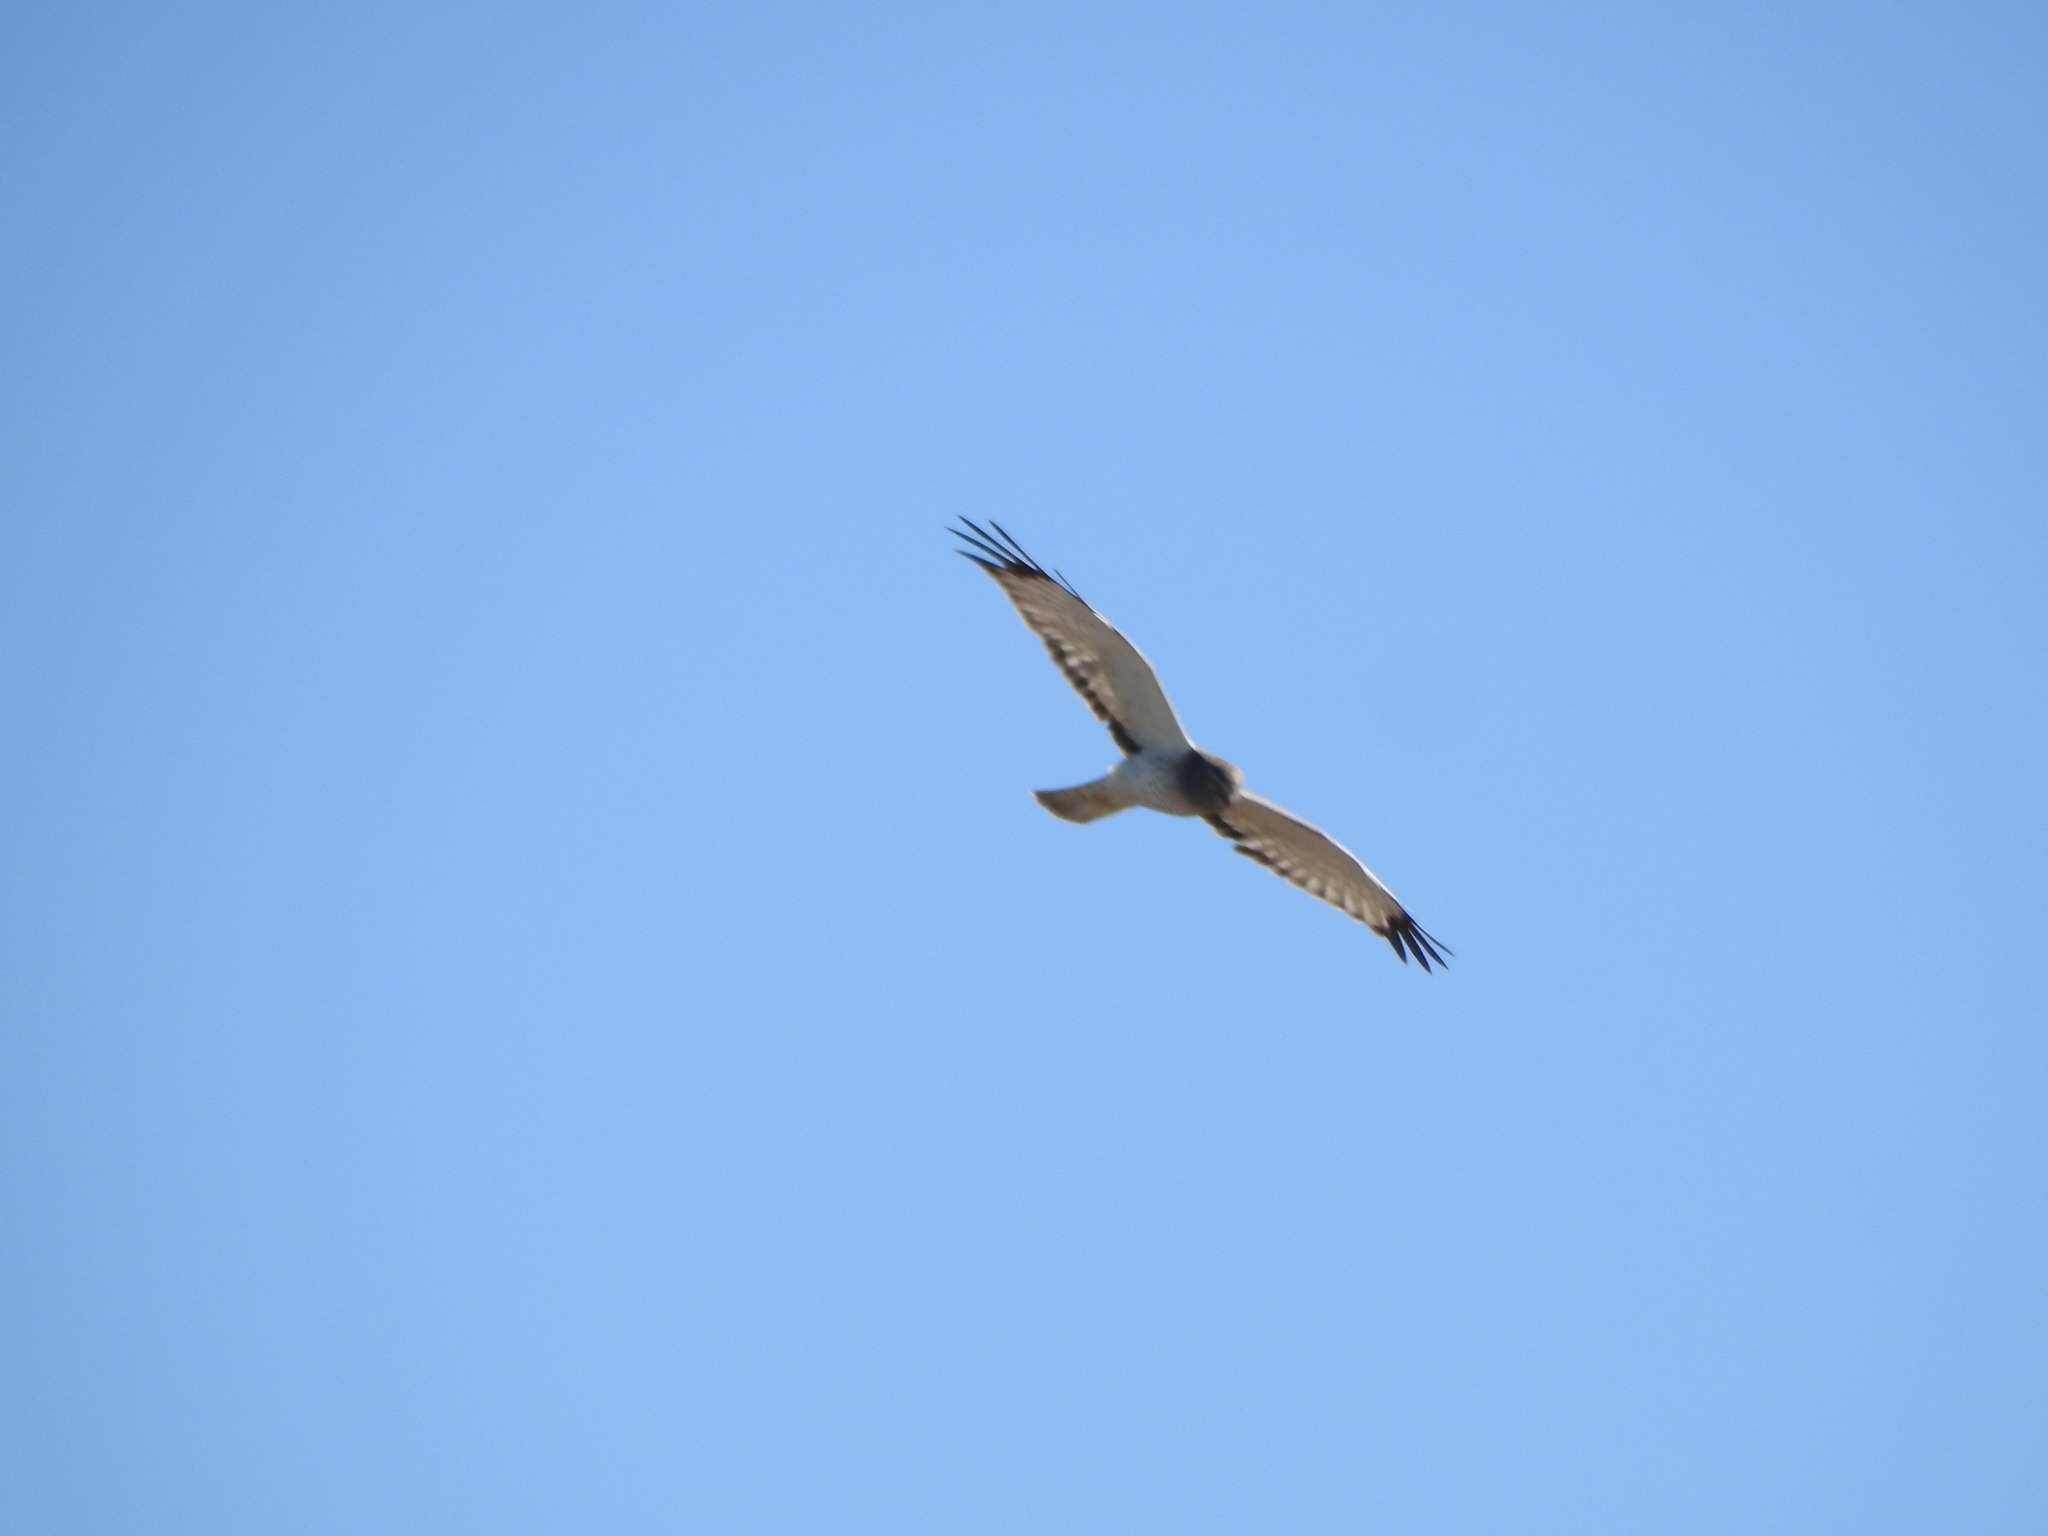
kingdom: Animalia
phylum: Chordata
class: Aves
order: Accipitriformes
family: Accipitridae
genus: Circus
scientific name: Circus cyaneus
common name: Hen harrier
